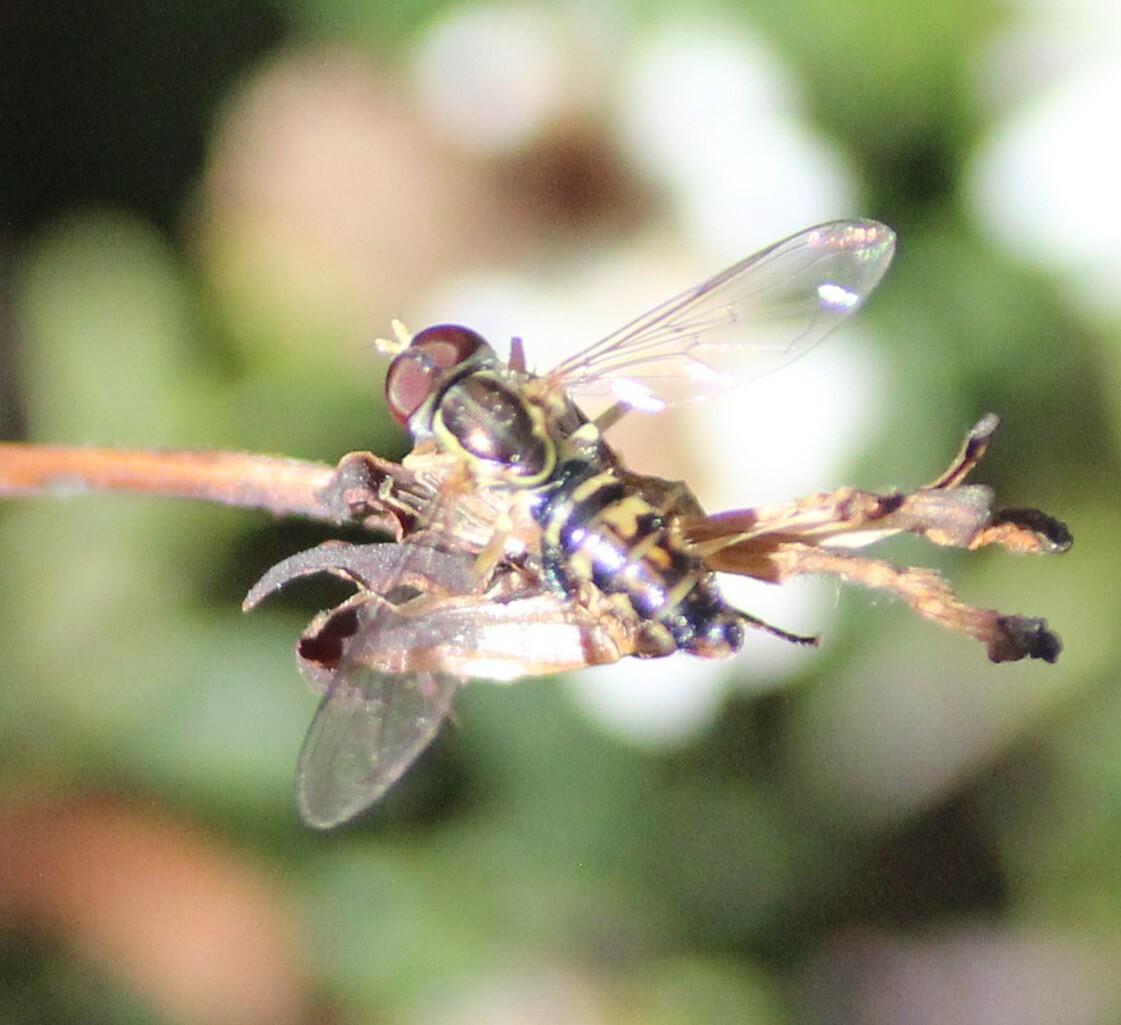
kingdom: Animalia
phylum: Arthropoda
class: Insecta
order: Diptera
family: Syrphidae
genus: Toxomerus
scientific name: Toxomerus geminatus
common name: Eastern calligrapher
